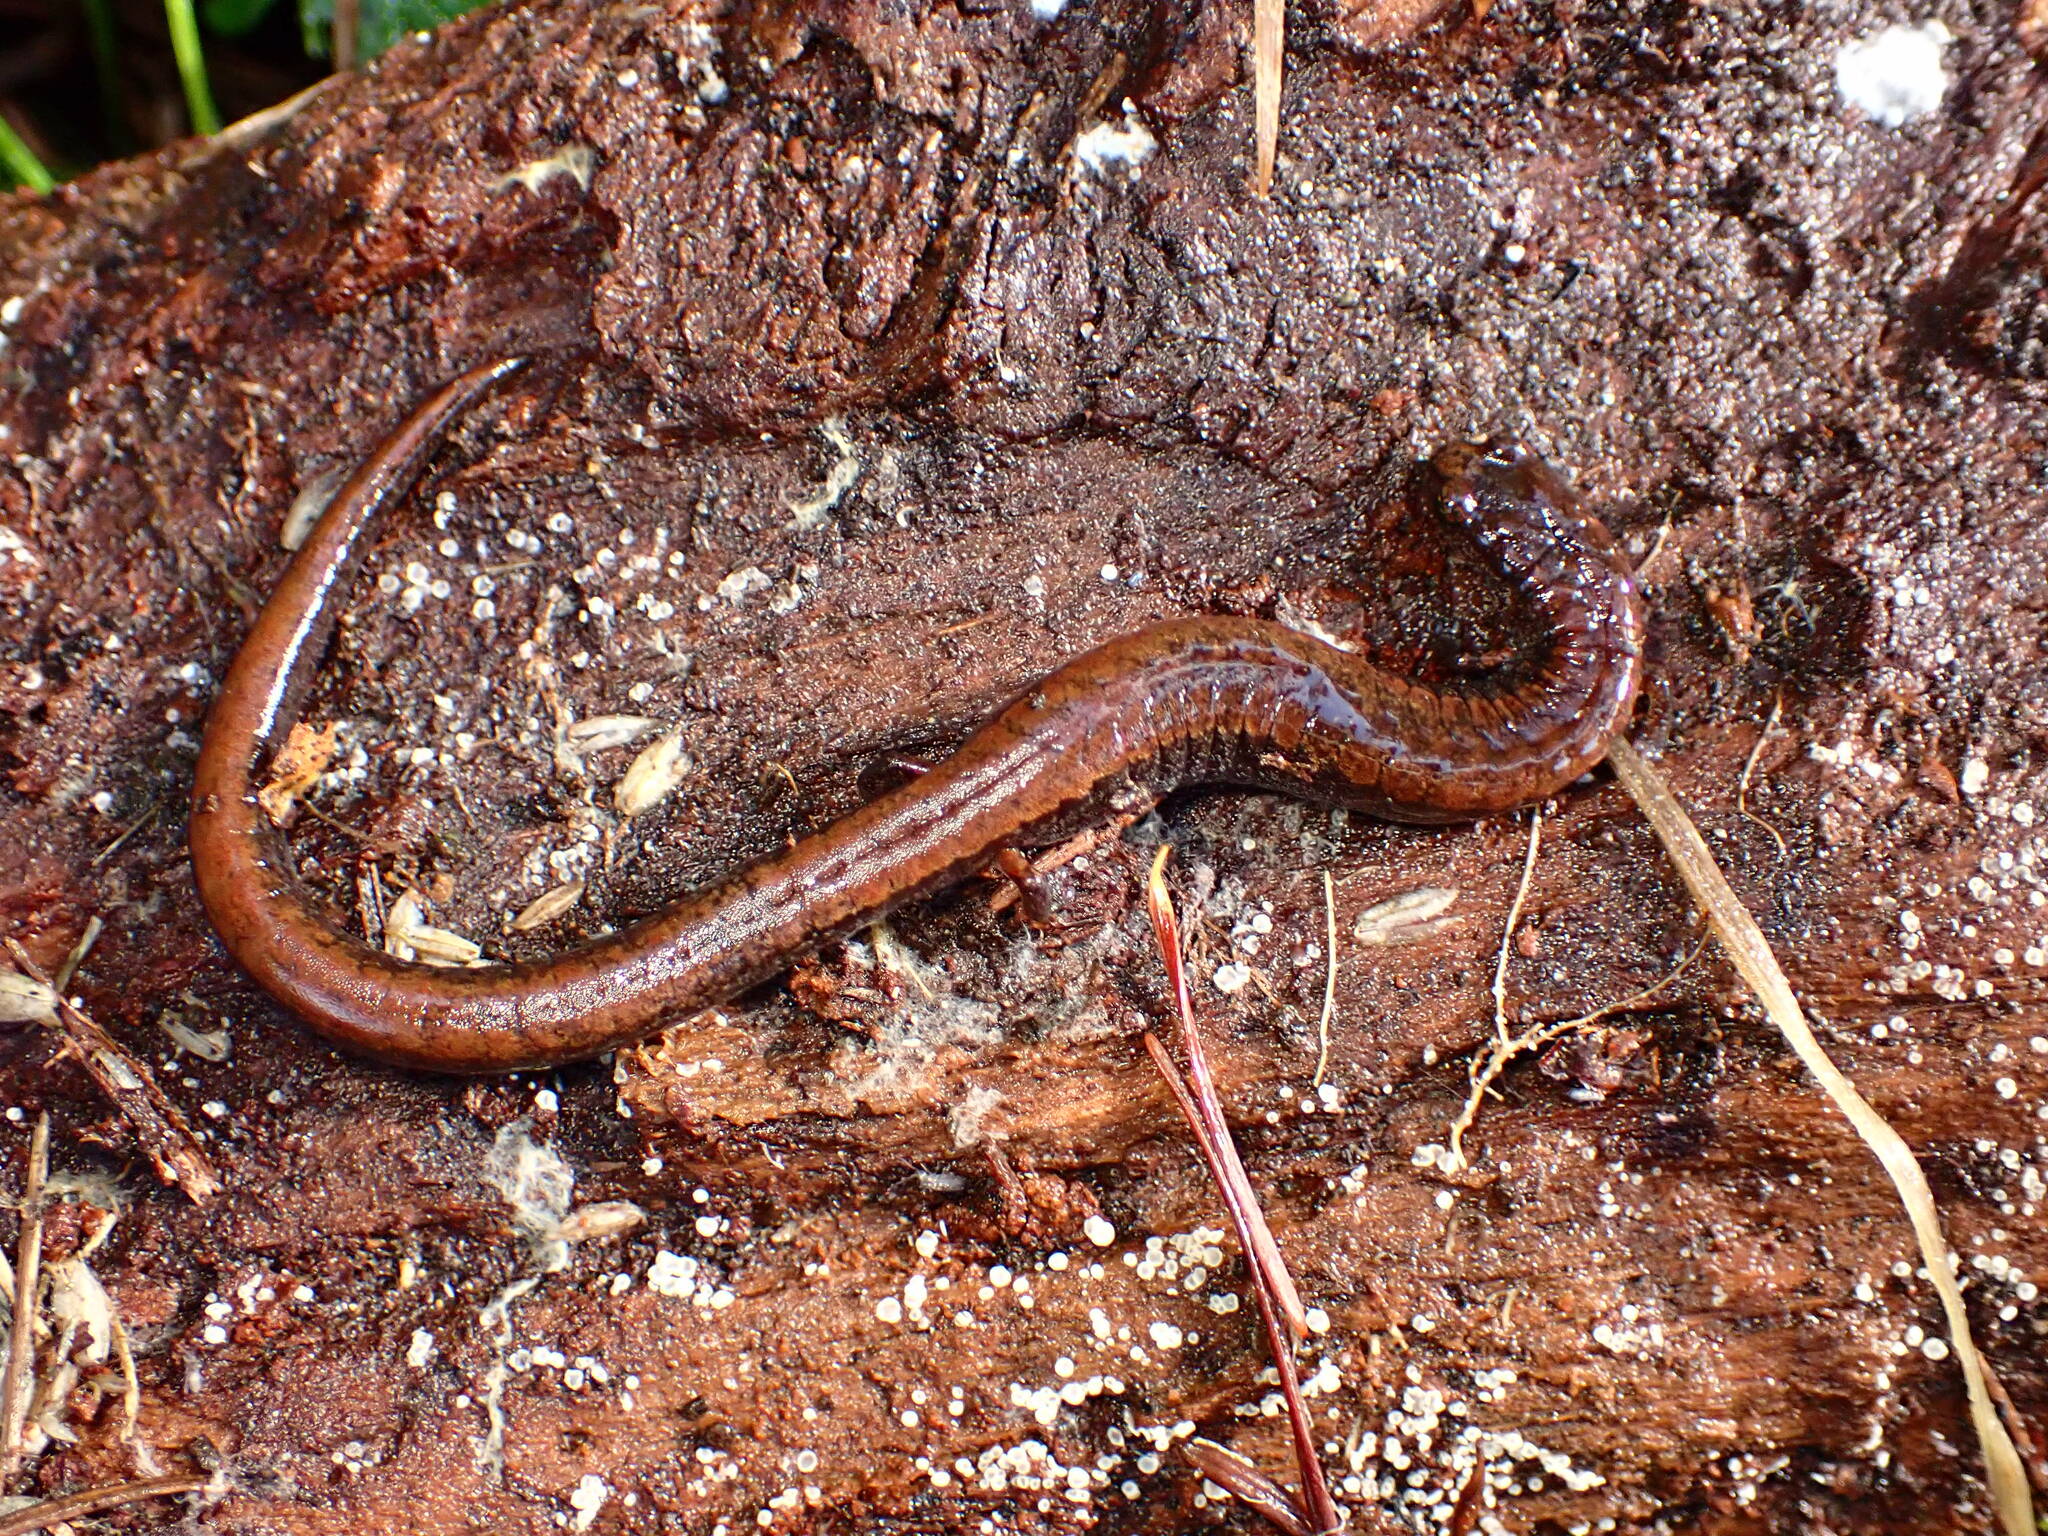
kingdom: Animalia
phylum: Chordata
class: Amphibia
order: Caudata
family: Plethodontidae
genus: Batrachoseps
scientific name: Batrachoseps attenuatus
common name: California slender salamander
